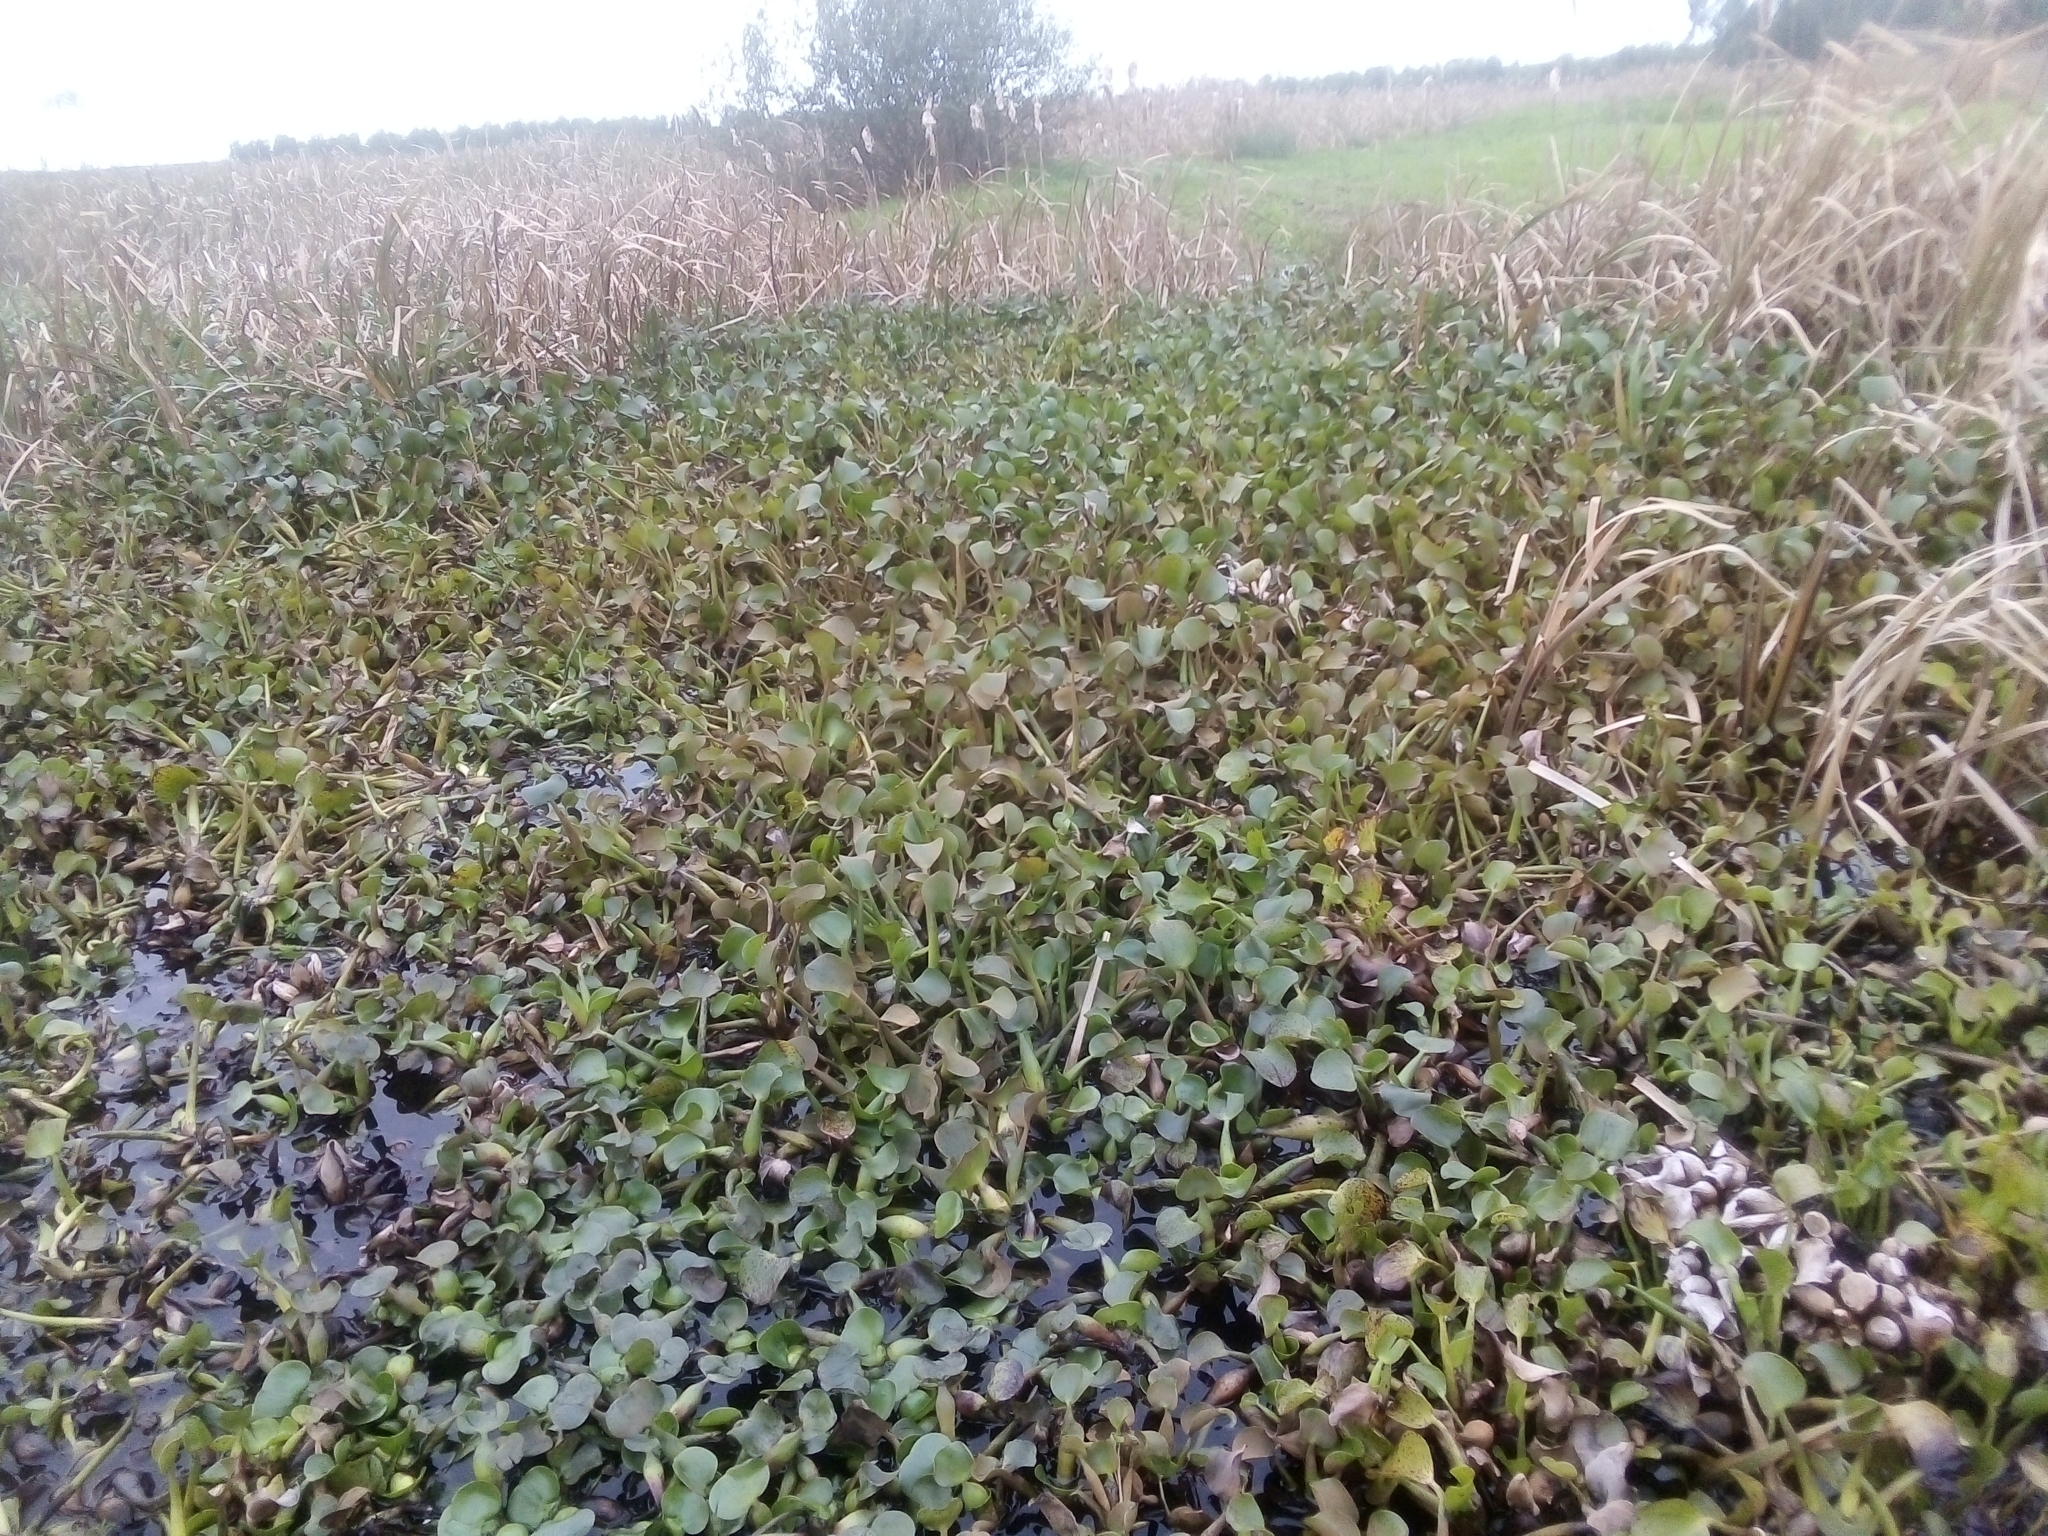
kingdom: Plantae
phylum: Tracheophyta
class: Liliopsida
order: Commelinales
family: Pontederiaceae
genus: Pontederia
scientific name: Pontederia crassipes
